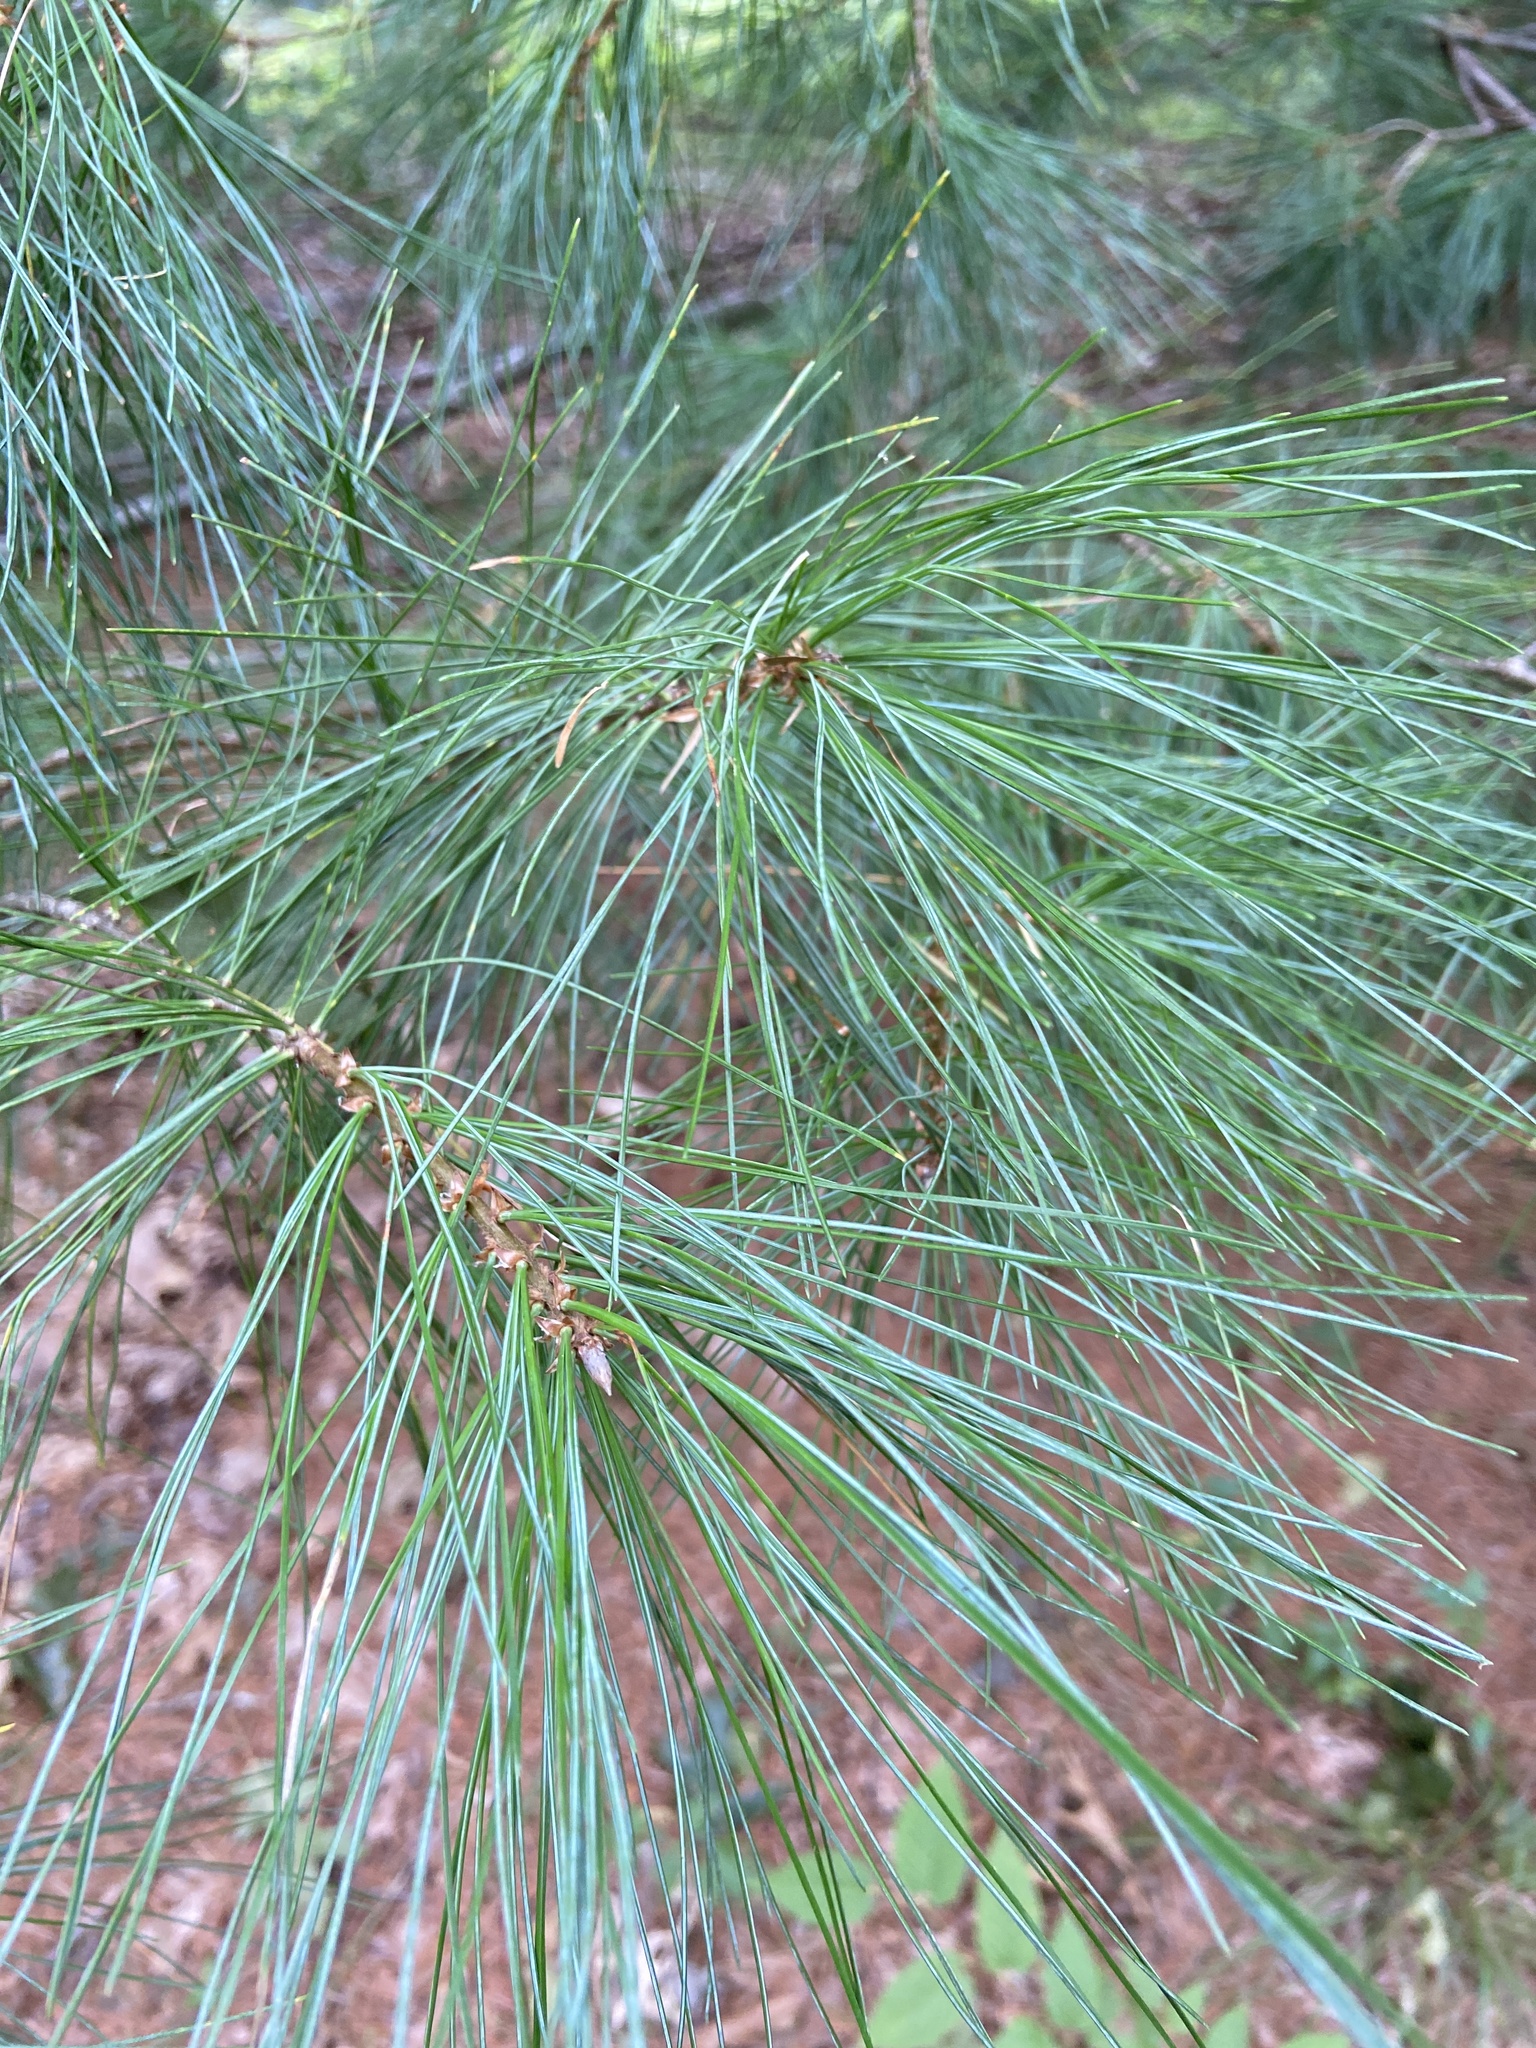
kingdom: Plantae
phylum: Tracheophyta
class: Pinopsida
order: Pinales
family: Pinaceae
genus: Pinus
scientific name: Pinus strobus
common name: Weymouth pine
